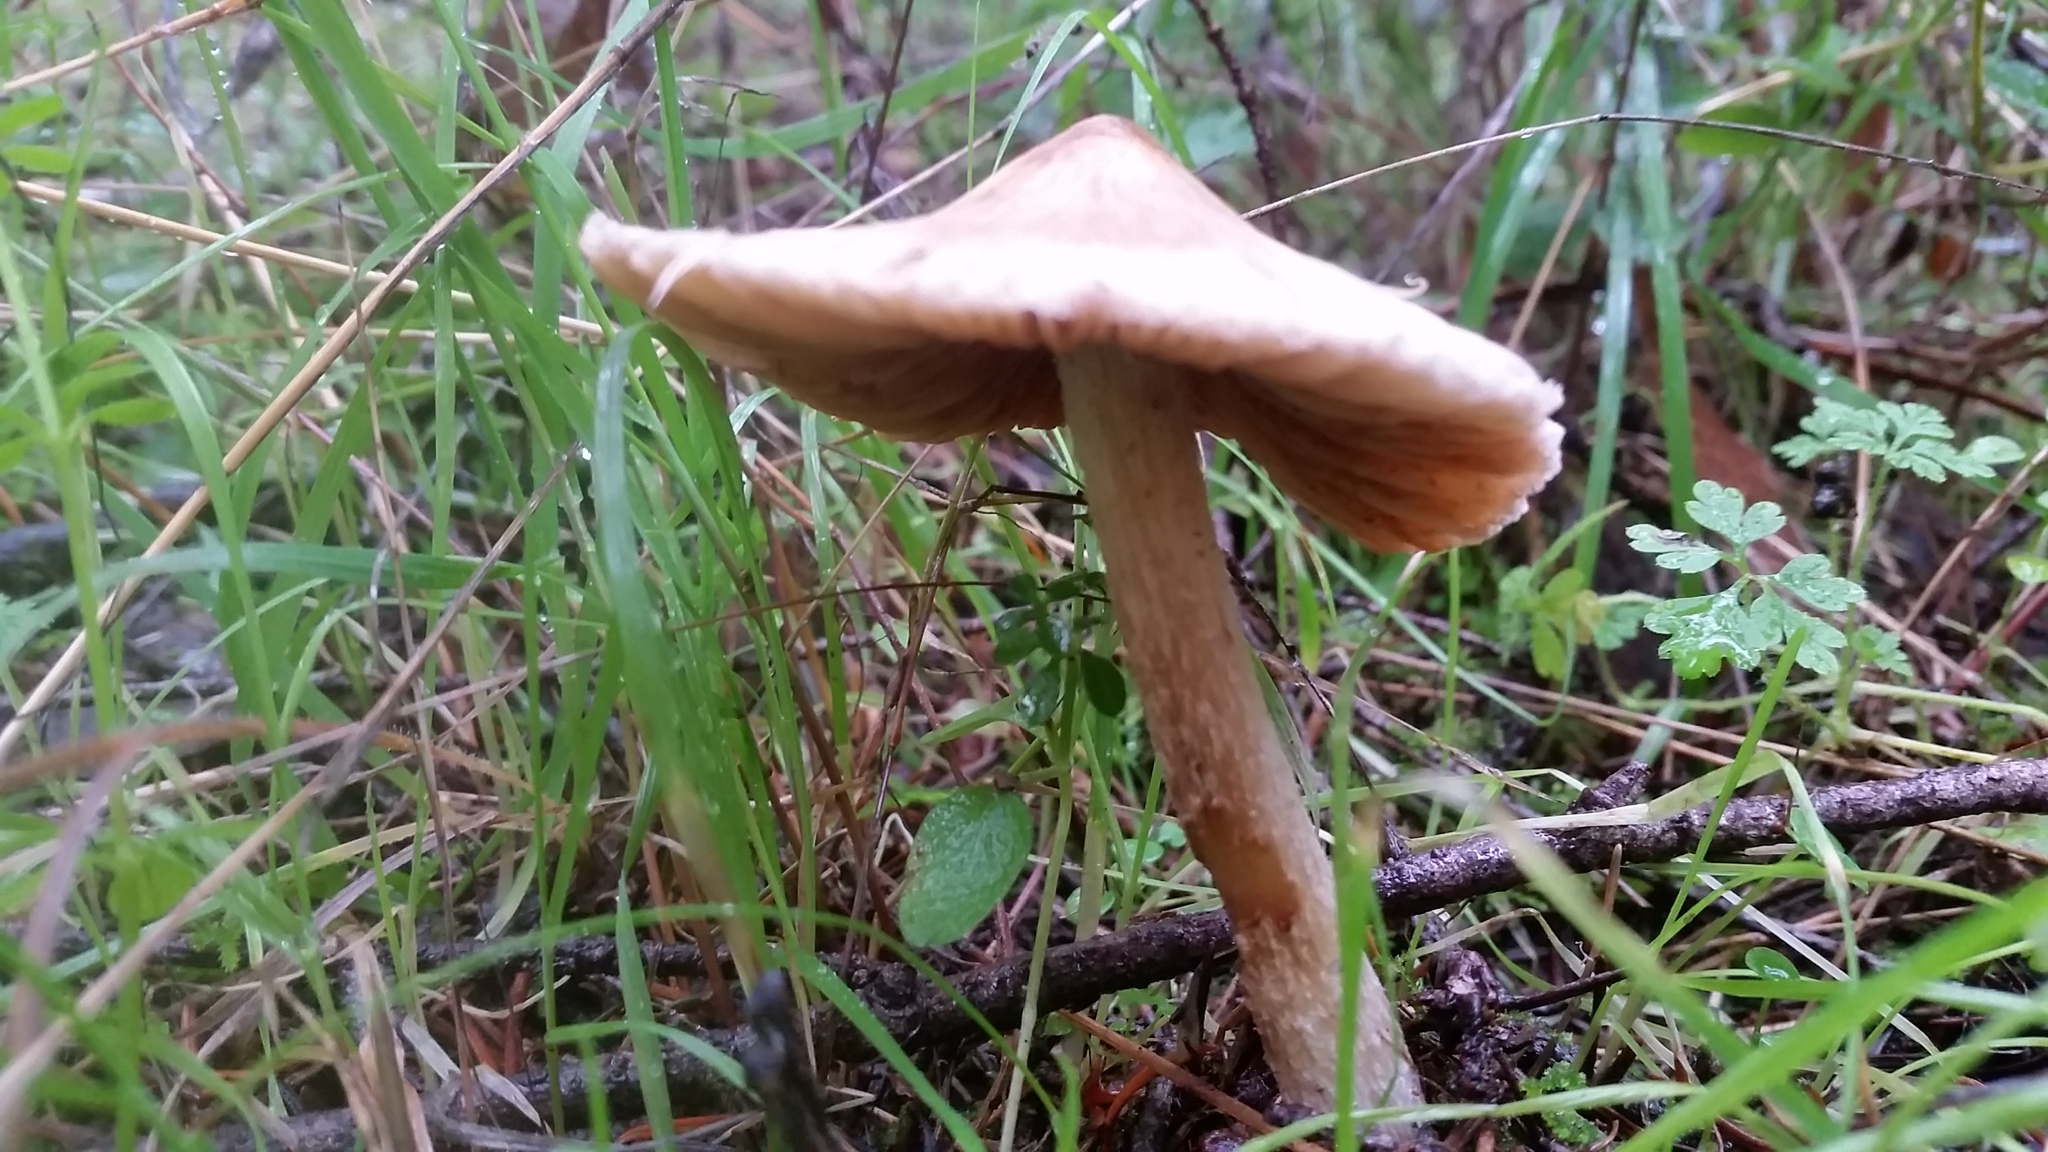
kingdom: Fungi
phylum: Basidiomycota
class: Agaricomycetes
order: Agaricales
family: Inocybaceae
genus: Pseudosperma
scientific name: Pseudosperma sororium
